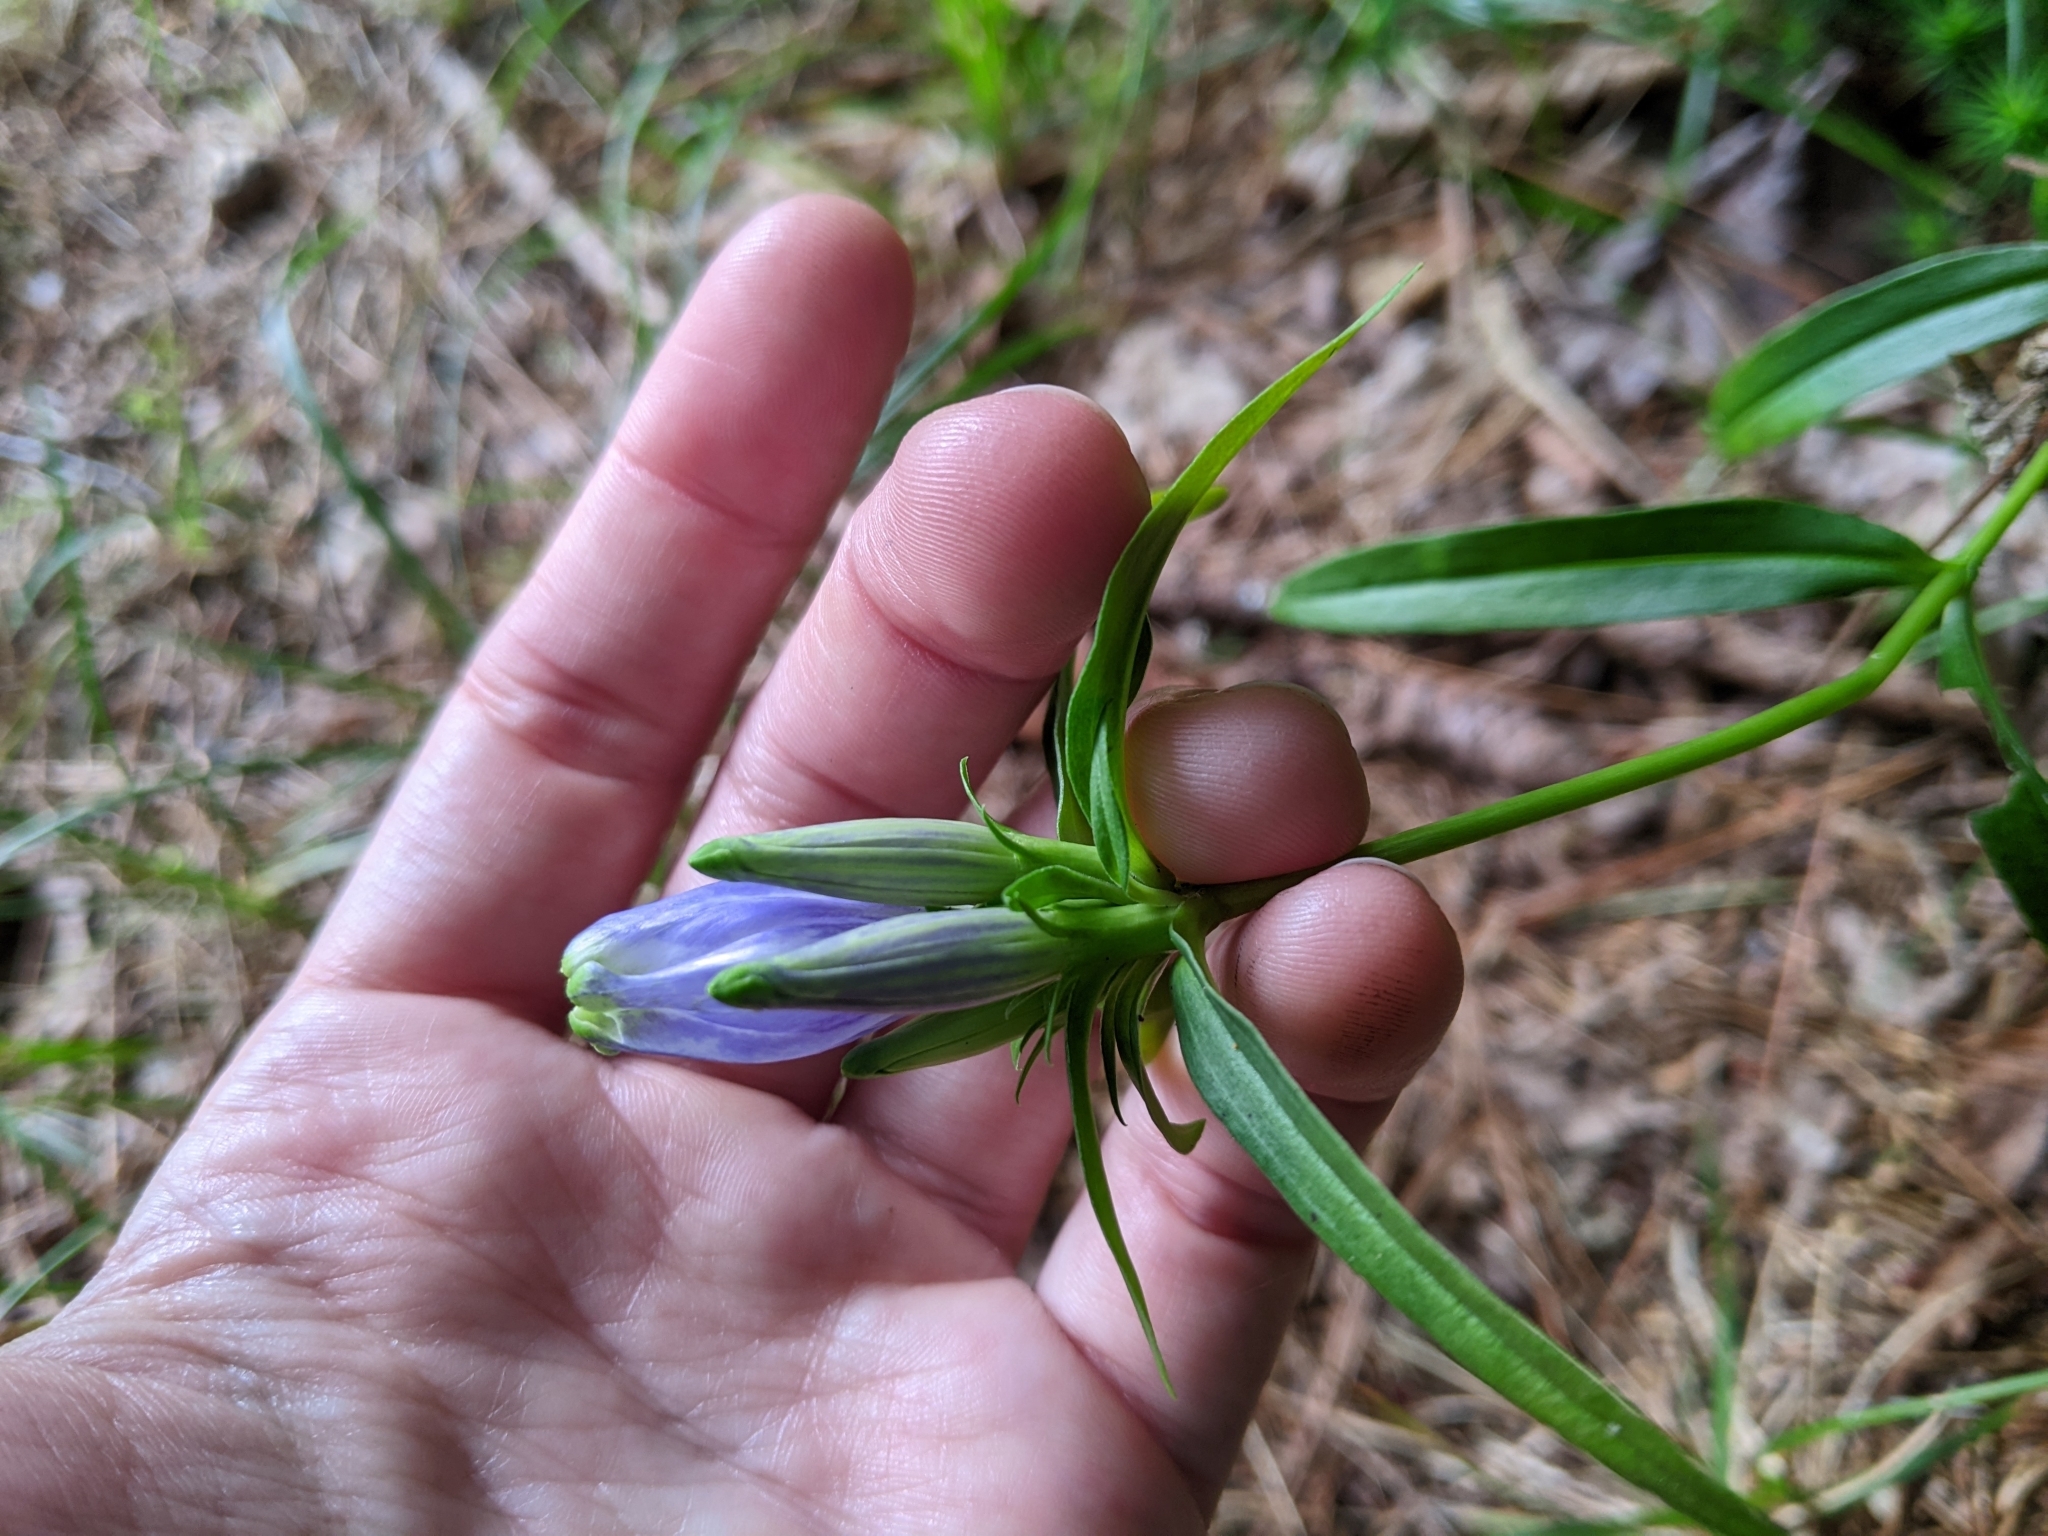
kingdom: Plantae
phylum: Tracheophyta
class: Magnoliopsida
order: Gentianales
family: Gentianaceae
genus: Gentiana
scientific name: Gentiana linearis
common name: Bastard gentian
